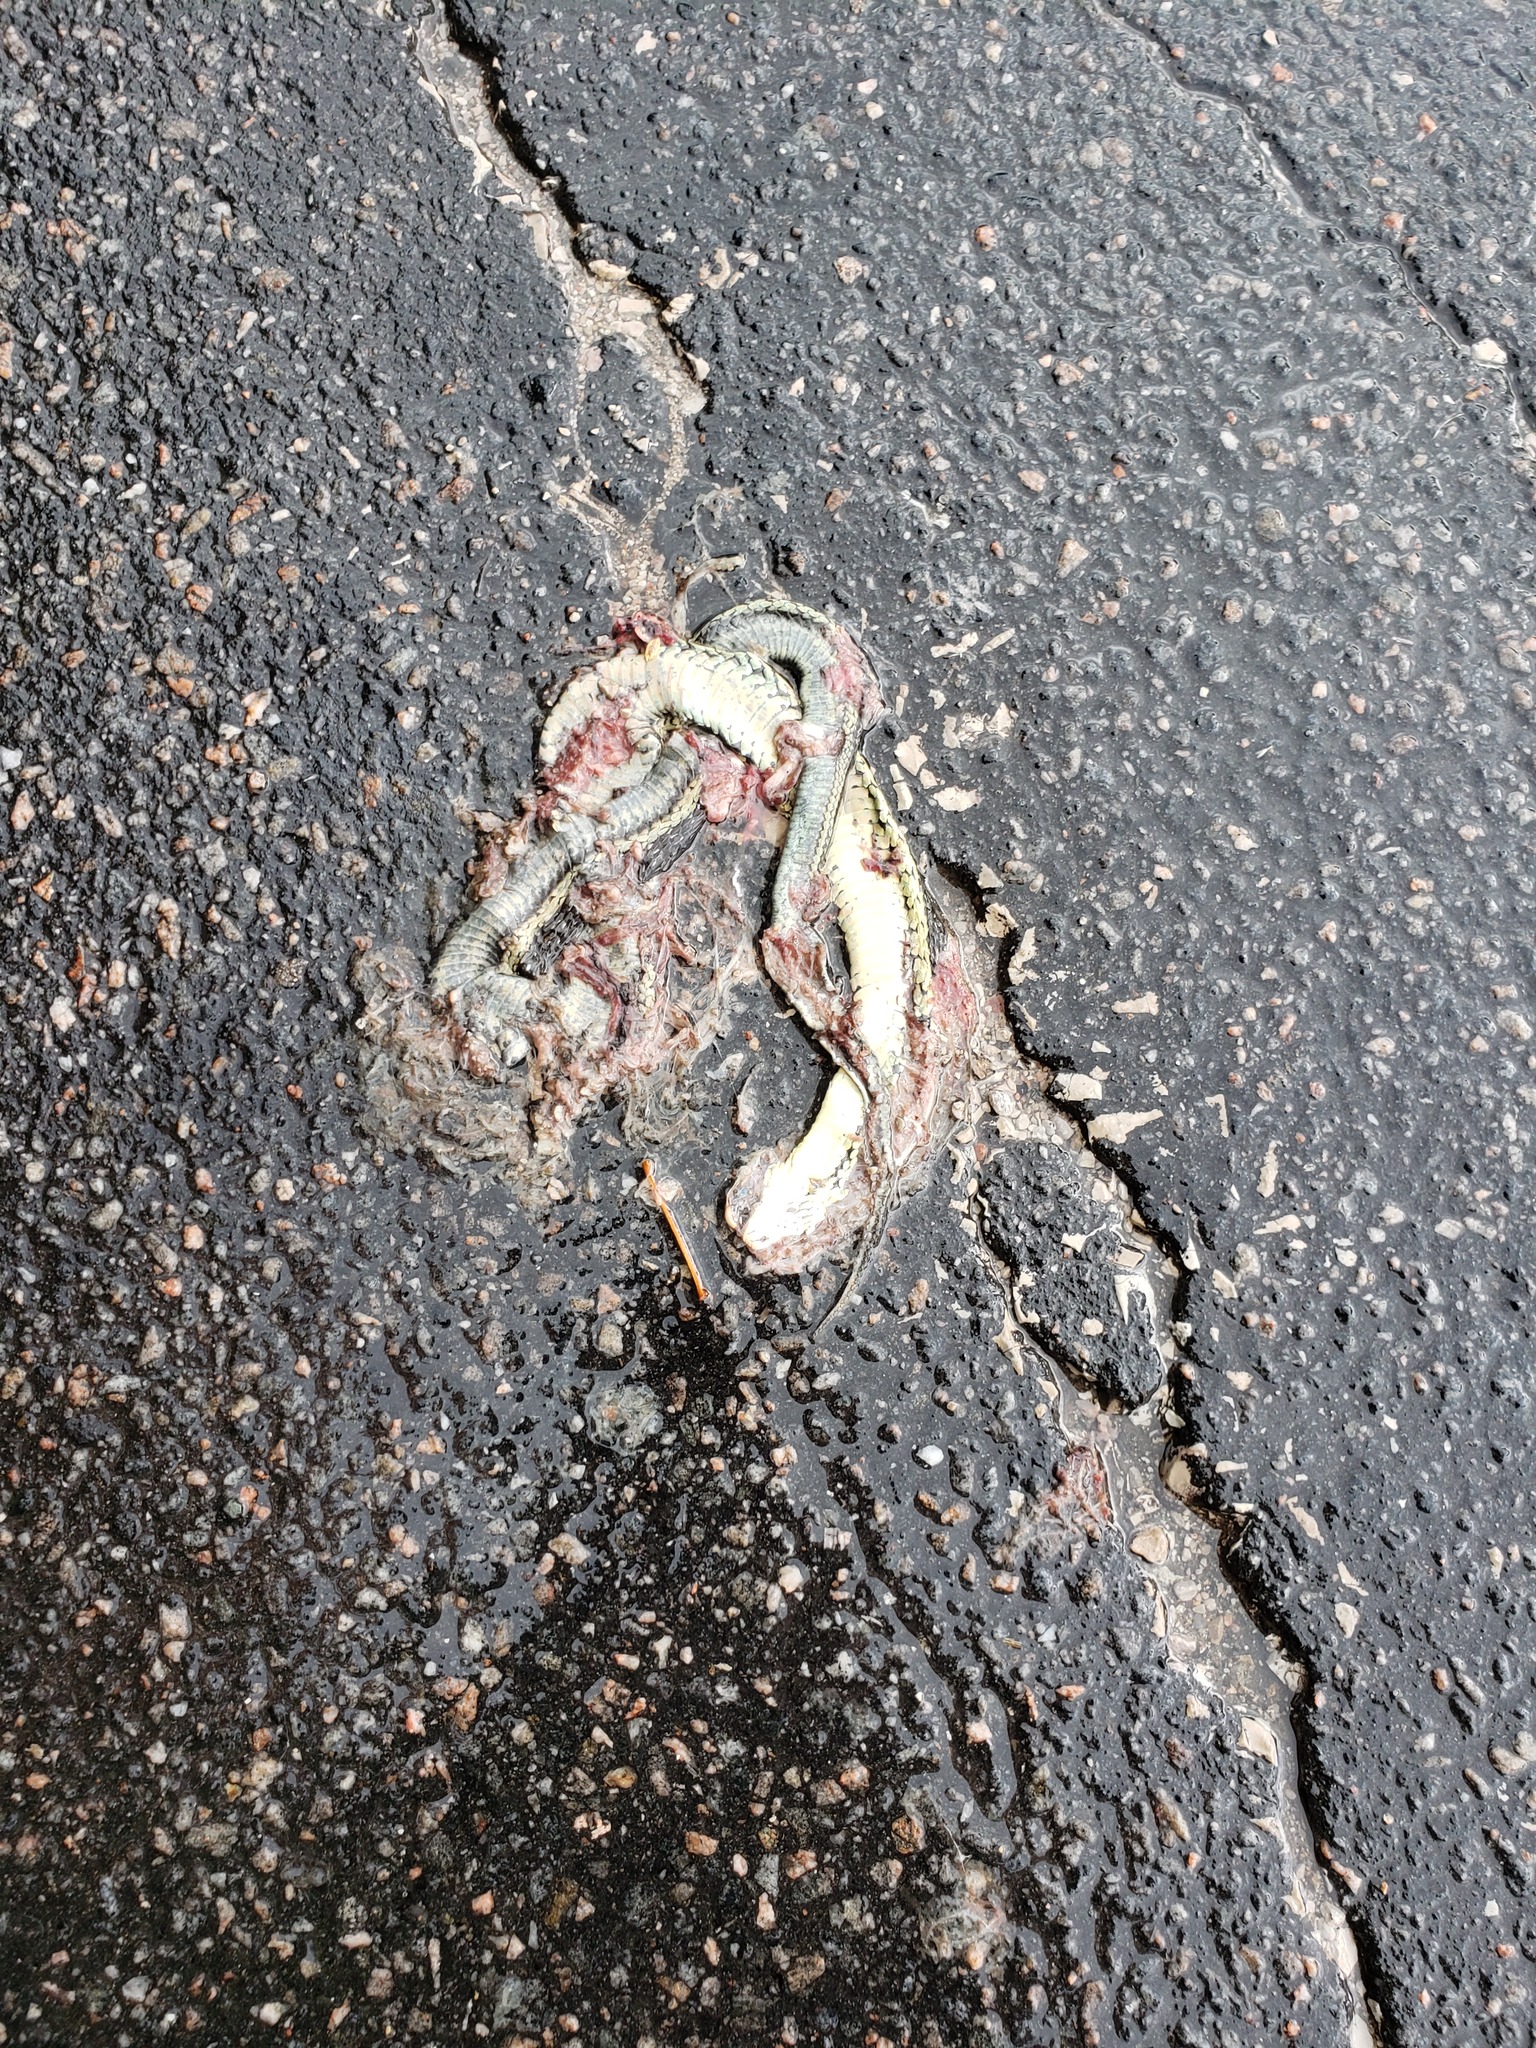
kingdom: Animalia
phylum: Chordata
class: Squamata
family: Colubridae
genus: Thamnophis
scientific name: Thamnophis sirtalis
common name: Common garter snake
